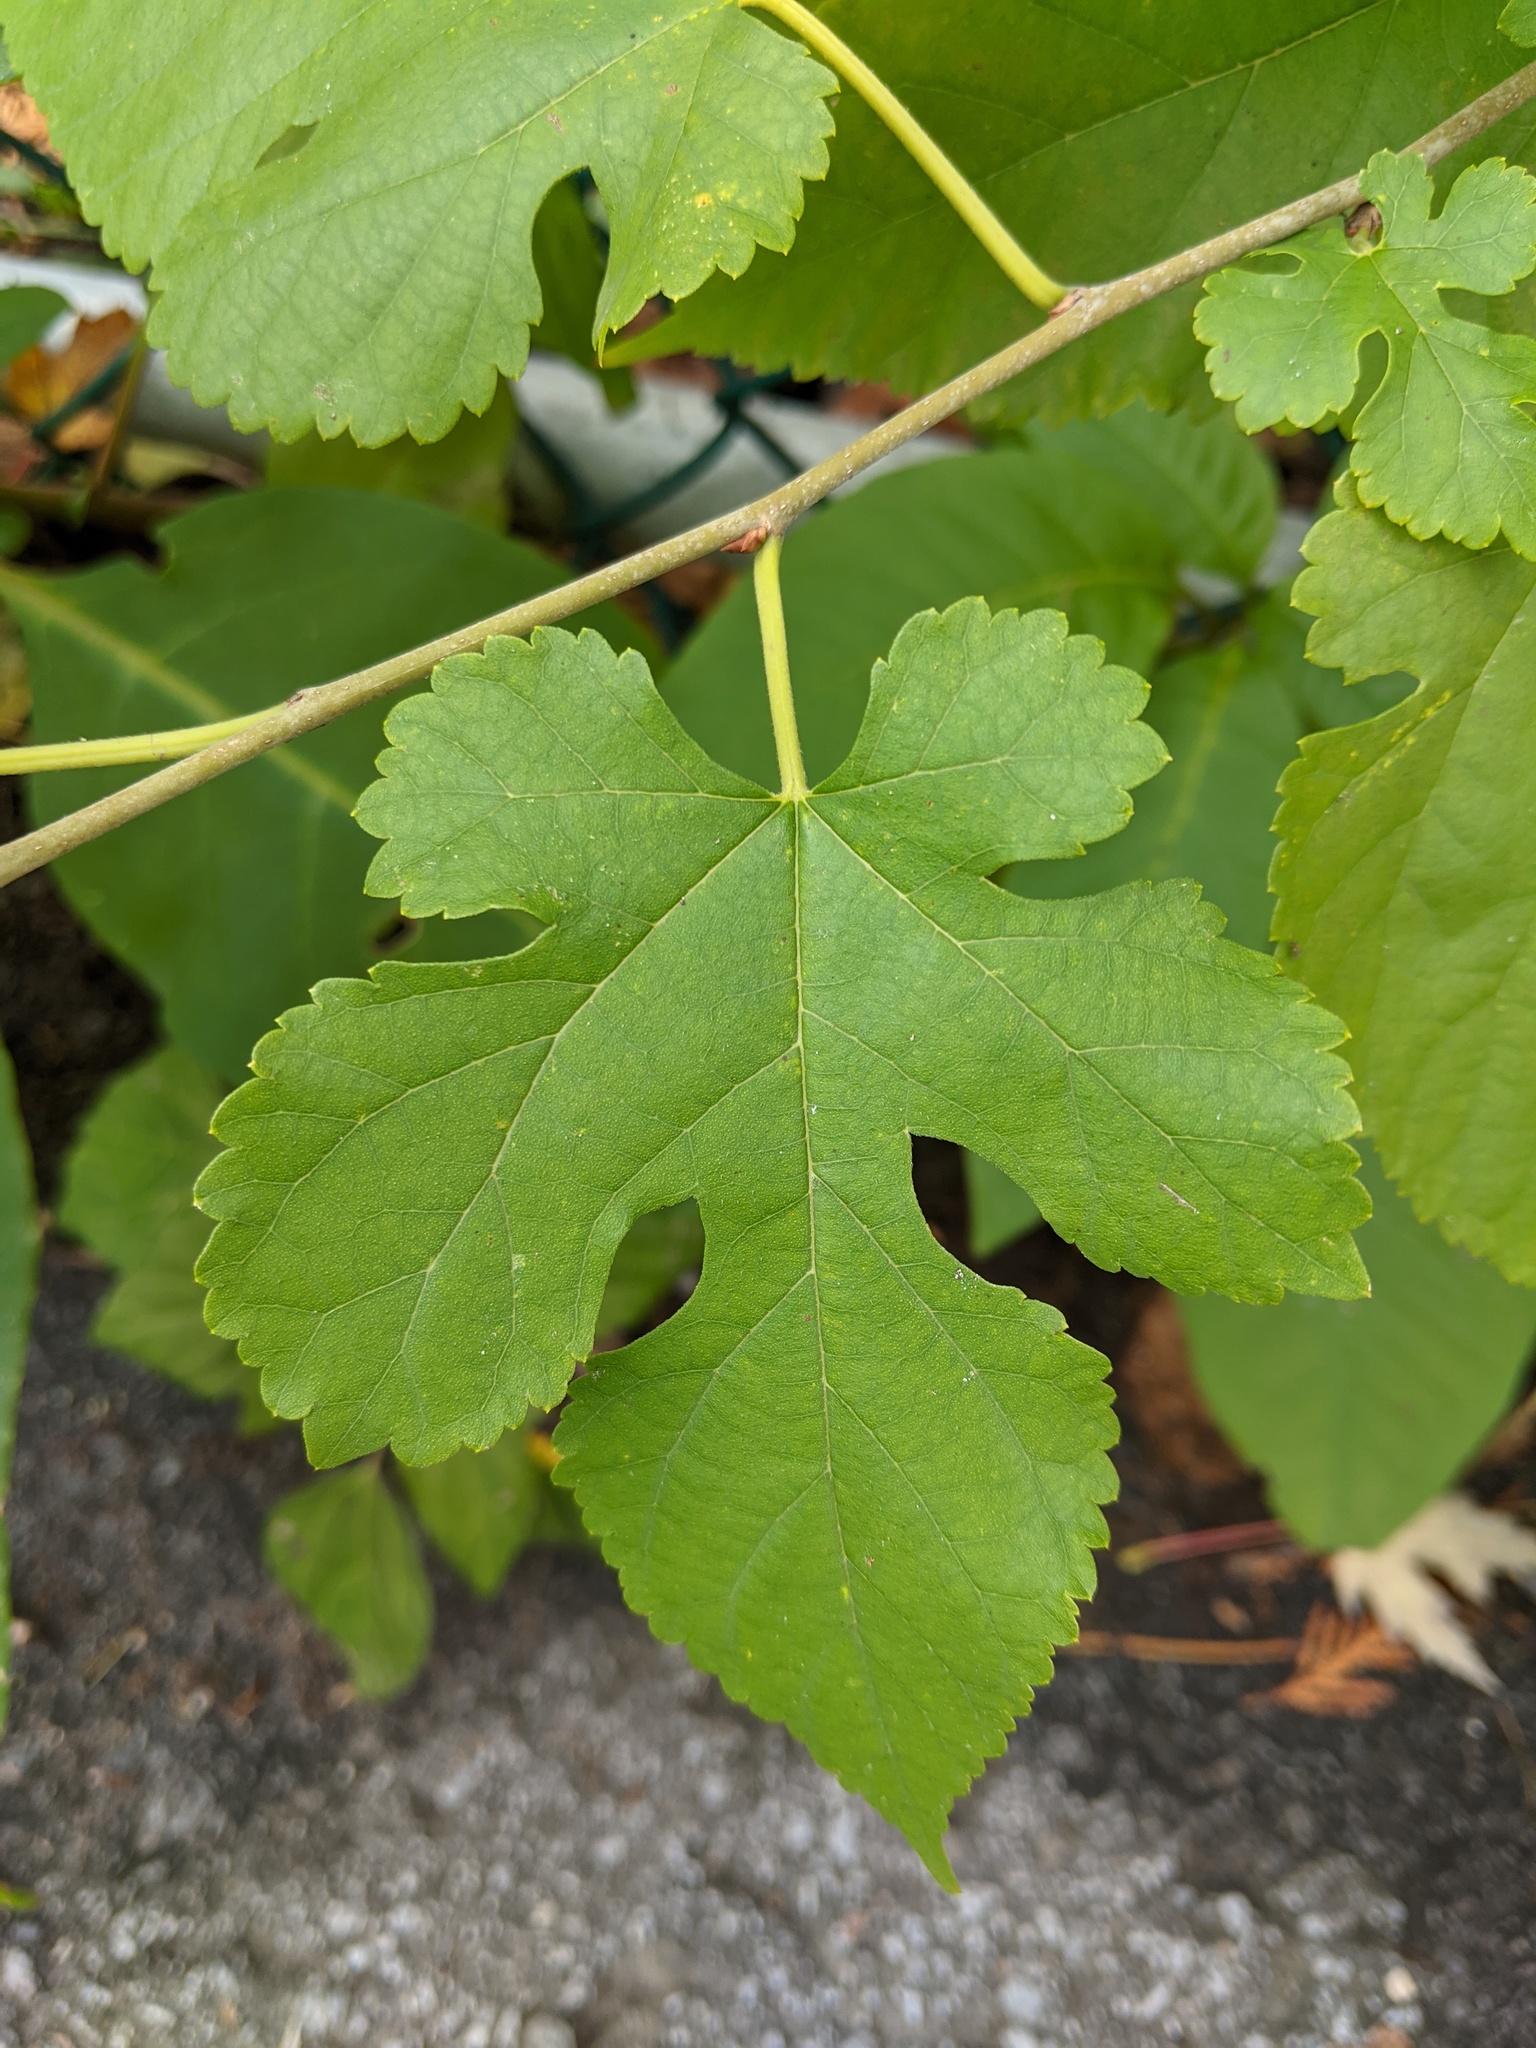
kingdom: Plantae
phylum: Tracheophyta
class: Magnoliopsida
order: Rosales
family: Moraceae
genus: Morus
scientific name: Morus alba
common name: White mulberry
